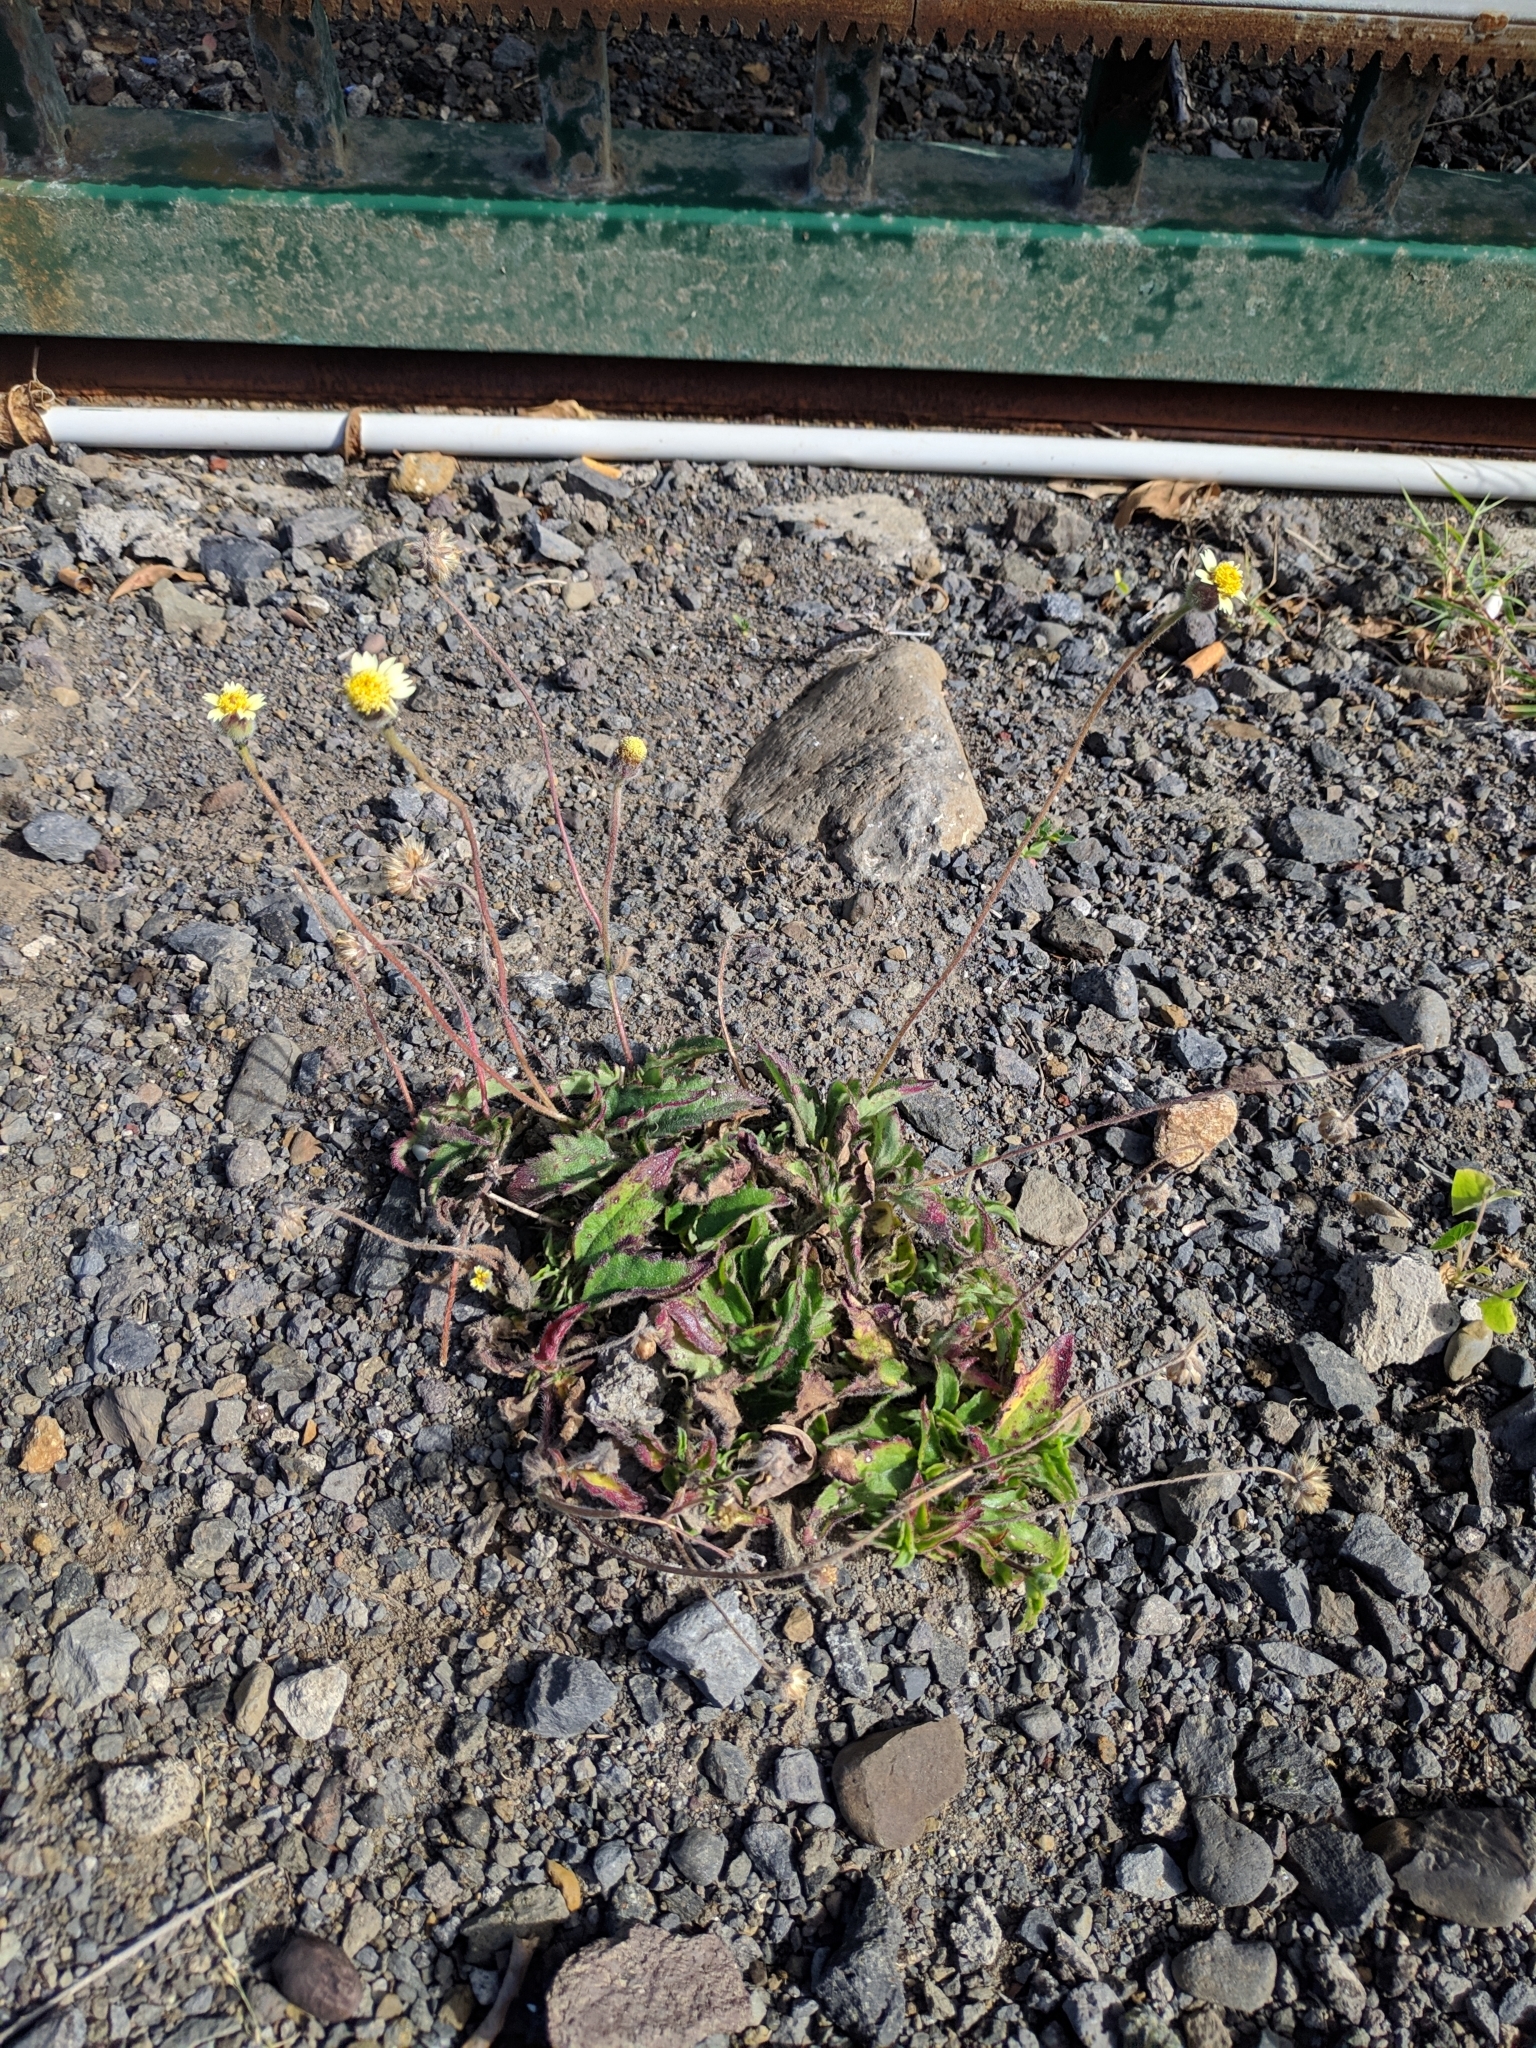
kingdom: Plantae
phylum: Tracheophyta
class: Magnoliopsida
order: Asterales
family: Asteraceae
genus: Tridax
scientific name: Tridax procumbens
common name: Coatbuttons
